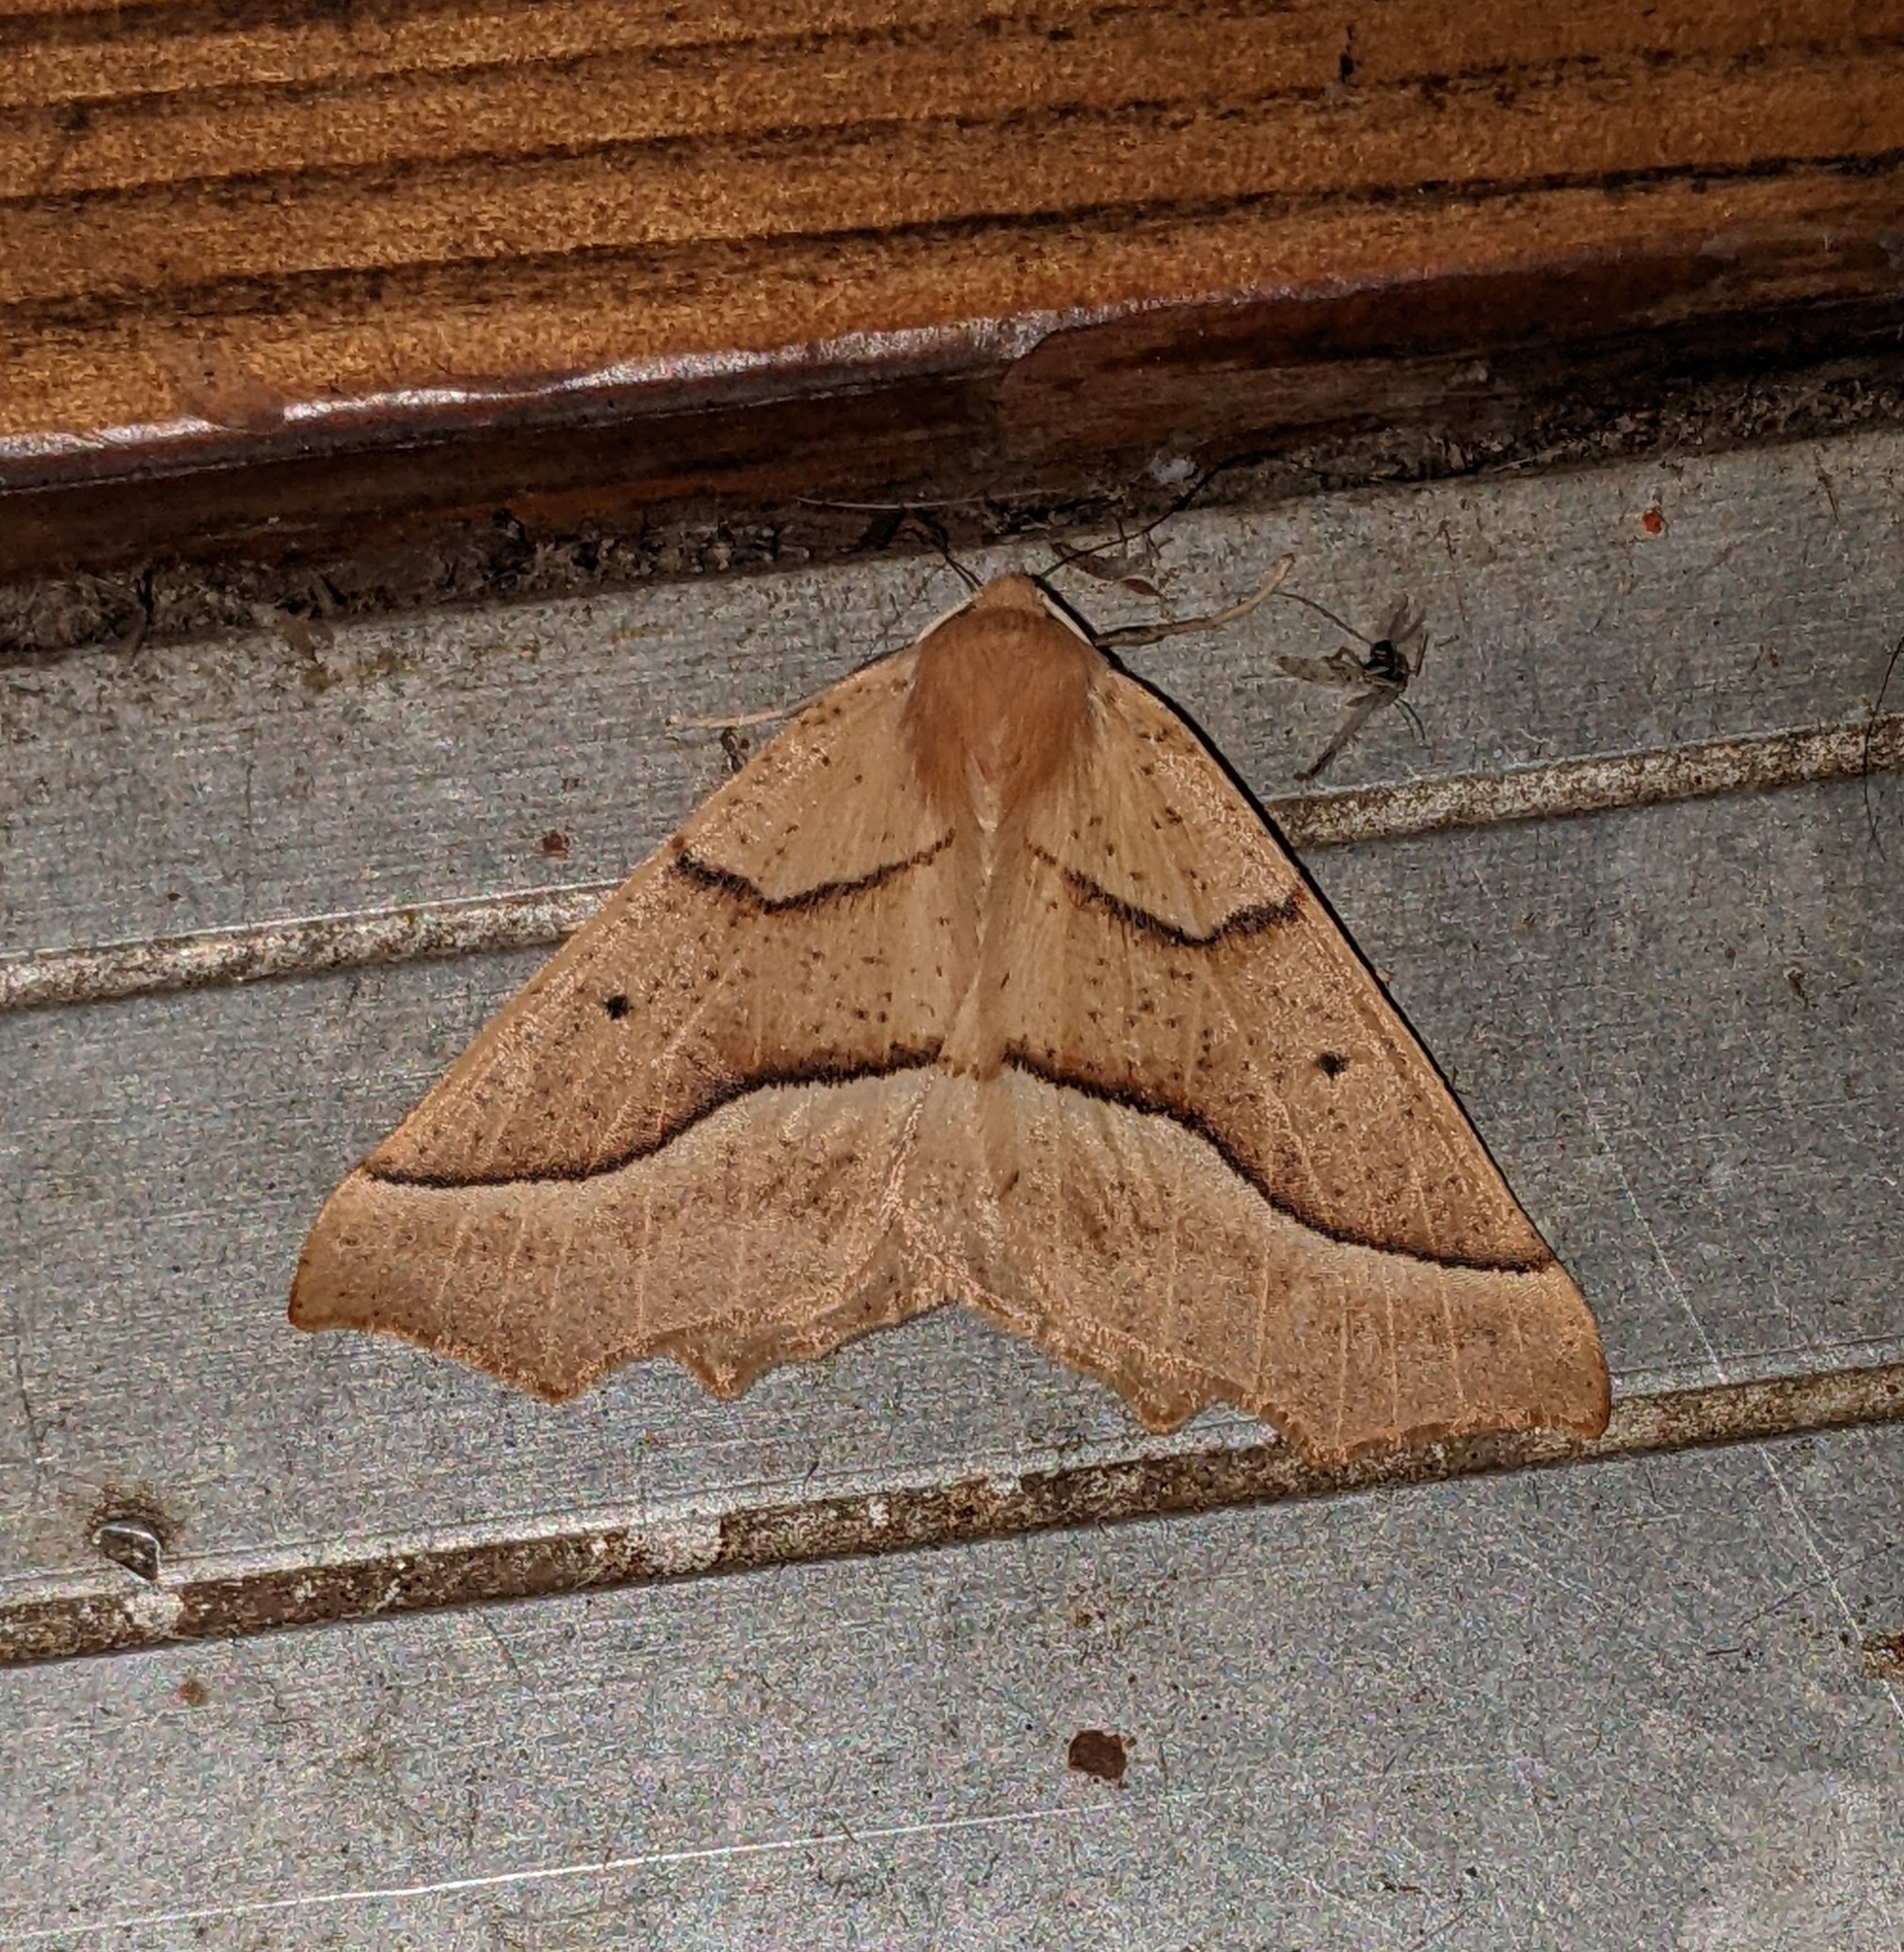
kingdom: Animalia
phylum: Arthropoda
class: Insecta
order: Lepidoptera
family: Geometridae
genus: Synaxis
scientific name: Synaxis jubararia
